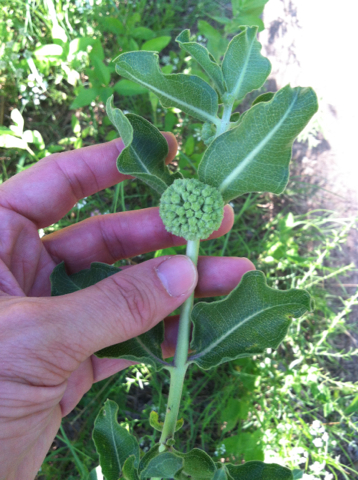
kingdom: Plantae
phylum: Tracheophyta
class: Magnoliopsida
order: Gentianales
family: Apocynaceae
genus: Asclepias
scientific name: Asclepias viridiflora
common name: Green comet milkweed
